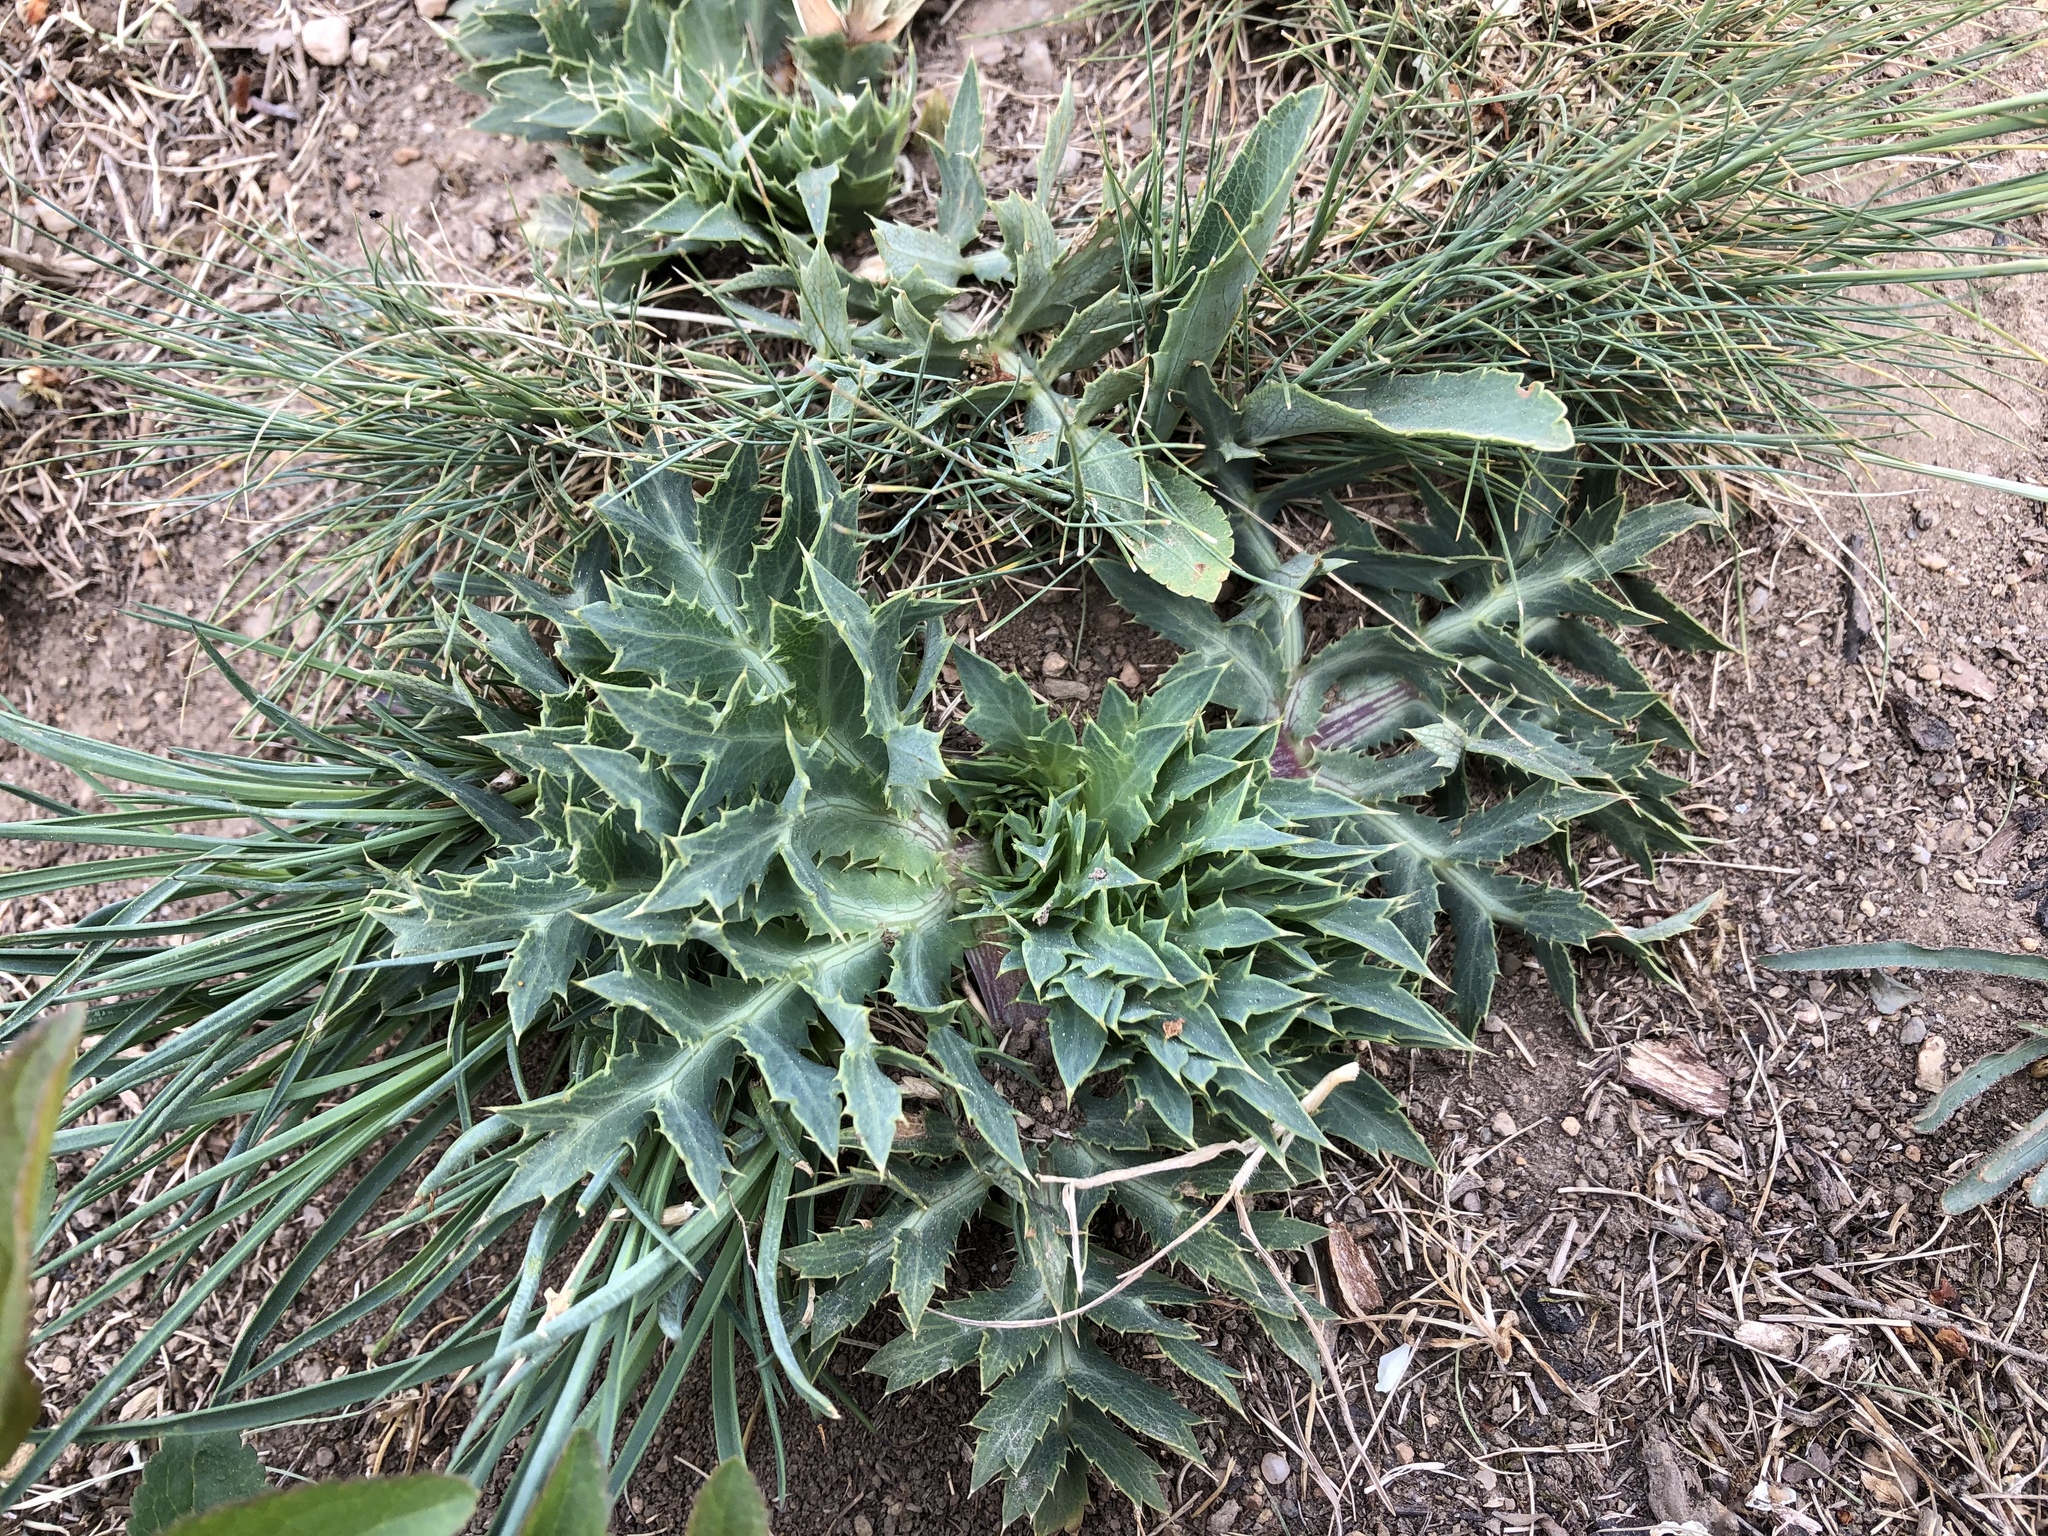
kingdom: Plantae
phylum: Tracheophyta
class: Magnoliopsida
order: Apiales
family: Apiaceae
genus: Eryngium
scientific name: Eryngium campestre
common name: Field eryngo
